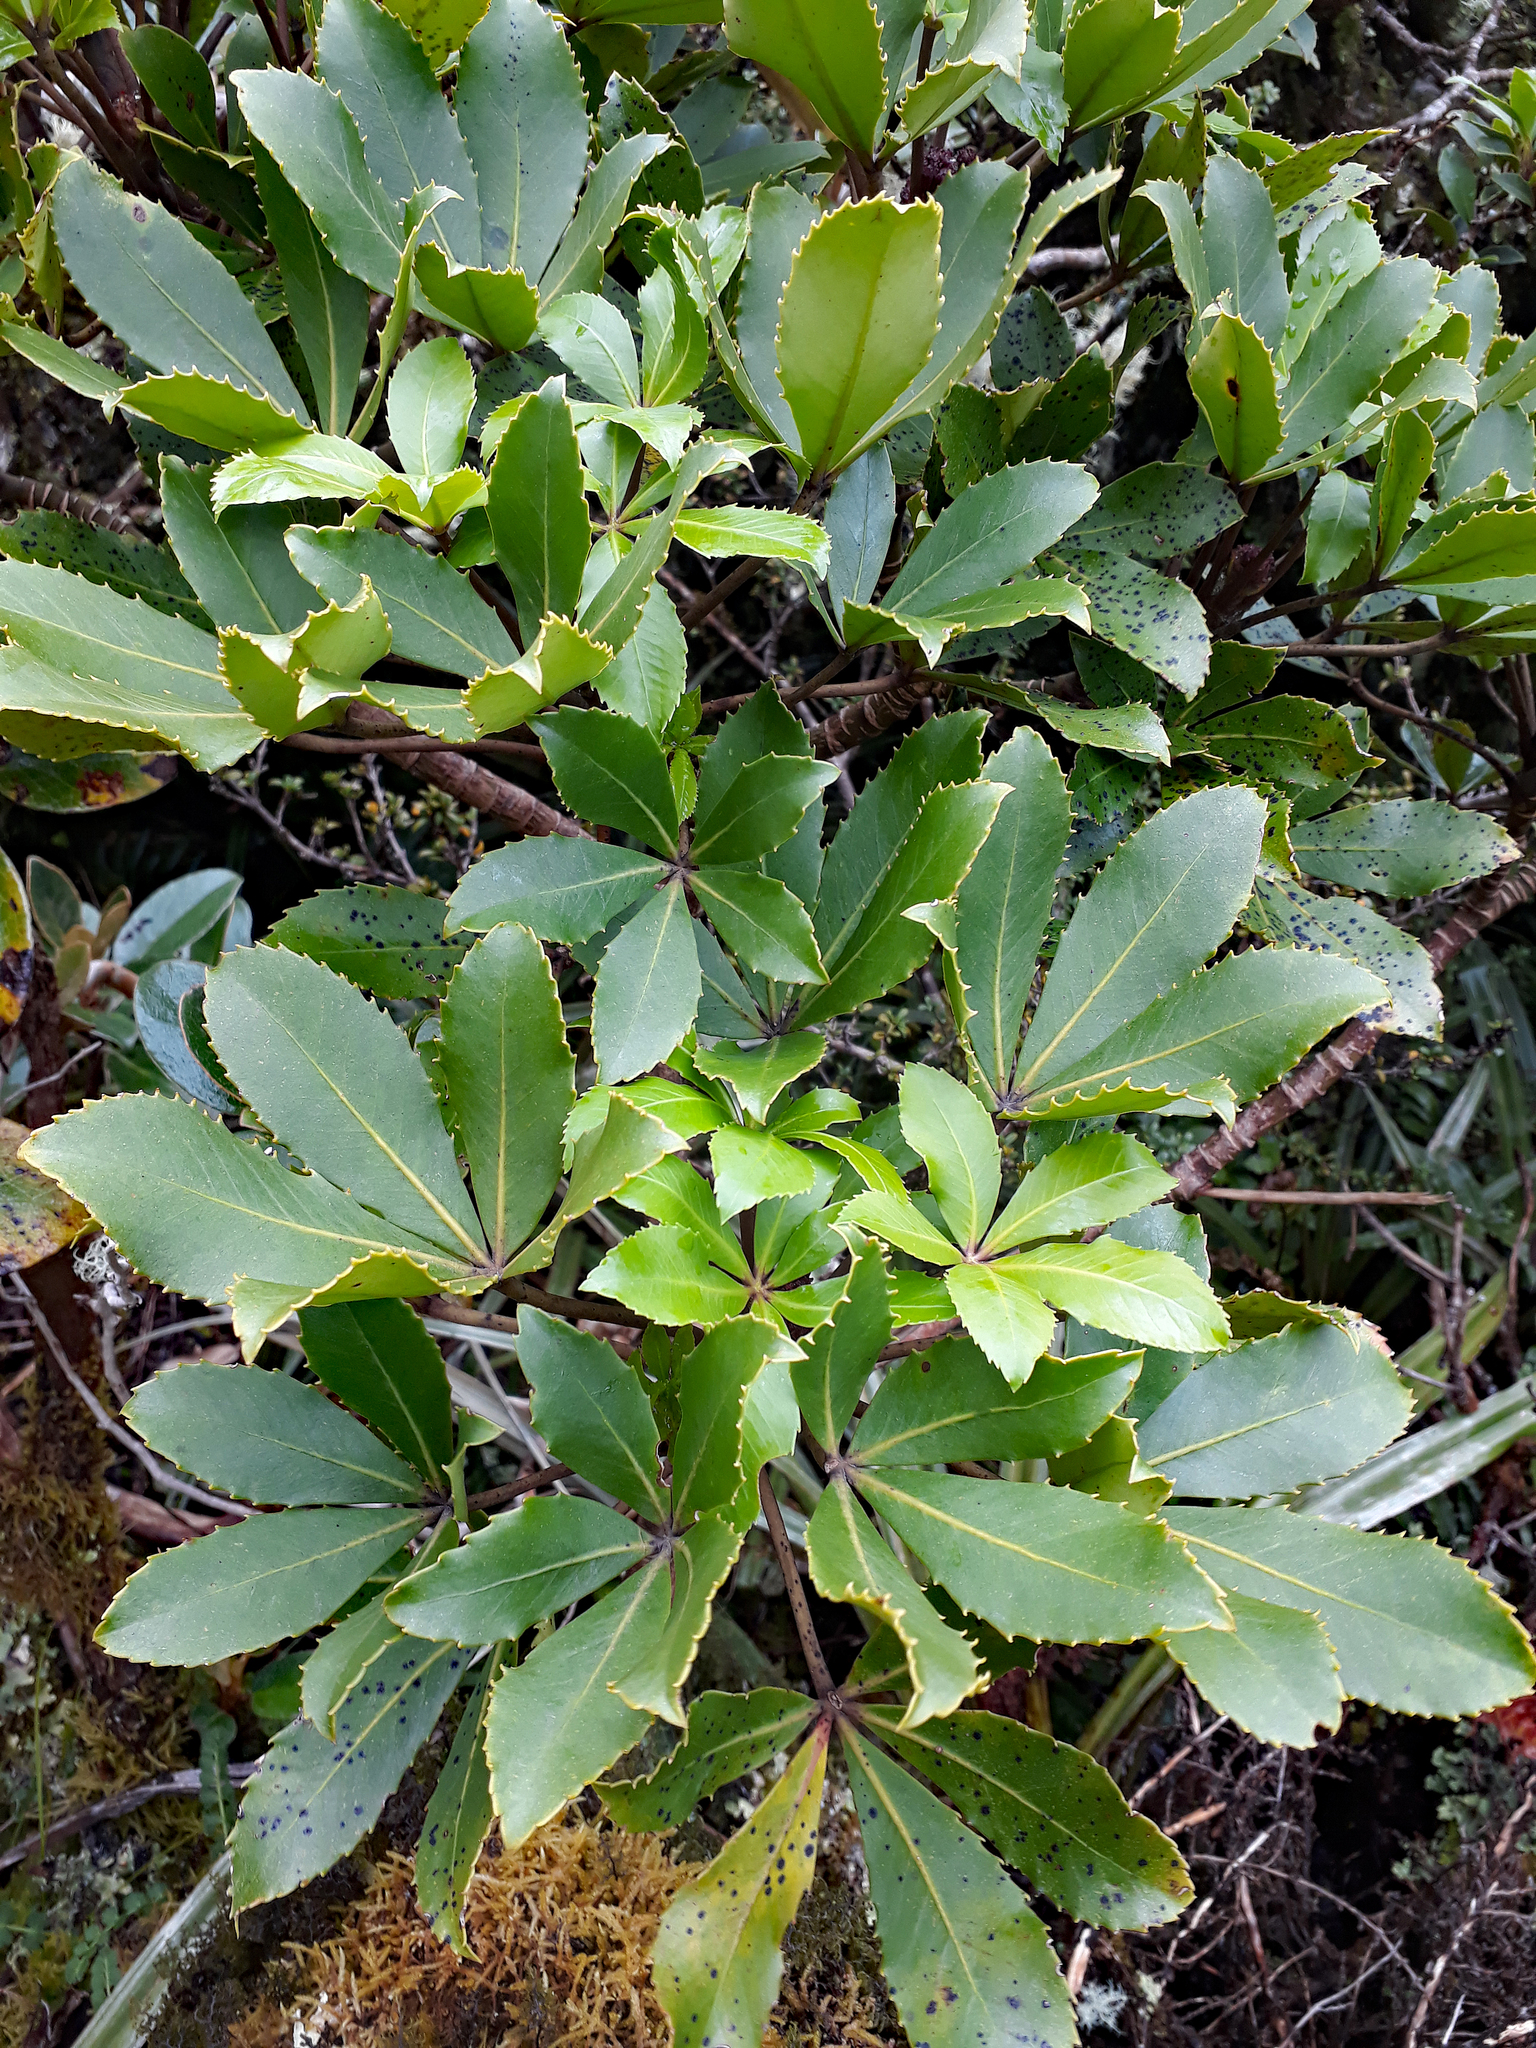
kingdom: Plantae
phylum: Tracheophyta
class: Magnoliopsida
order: Apiales
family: Araliaceae
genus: Neopanax
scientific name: Neopanax colensoi
